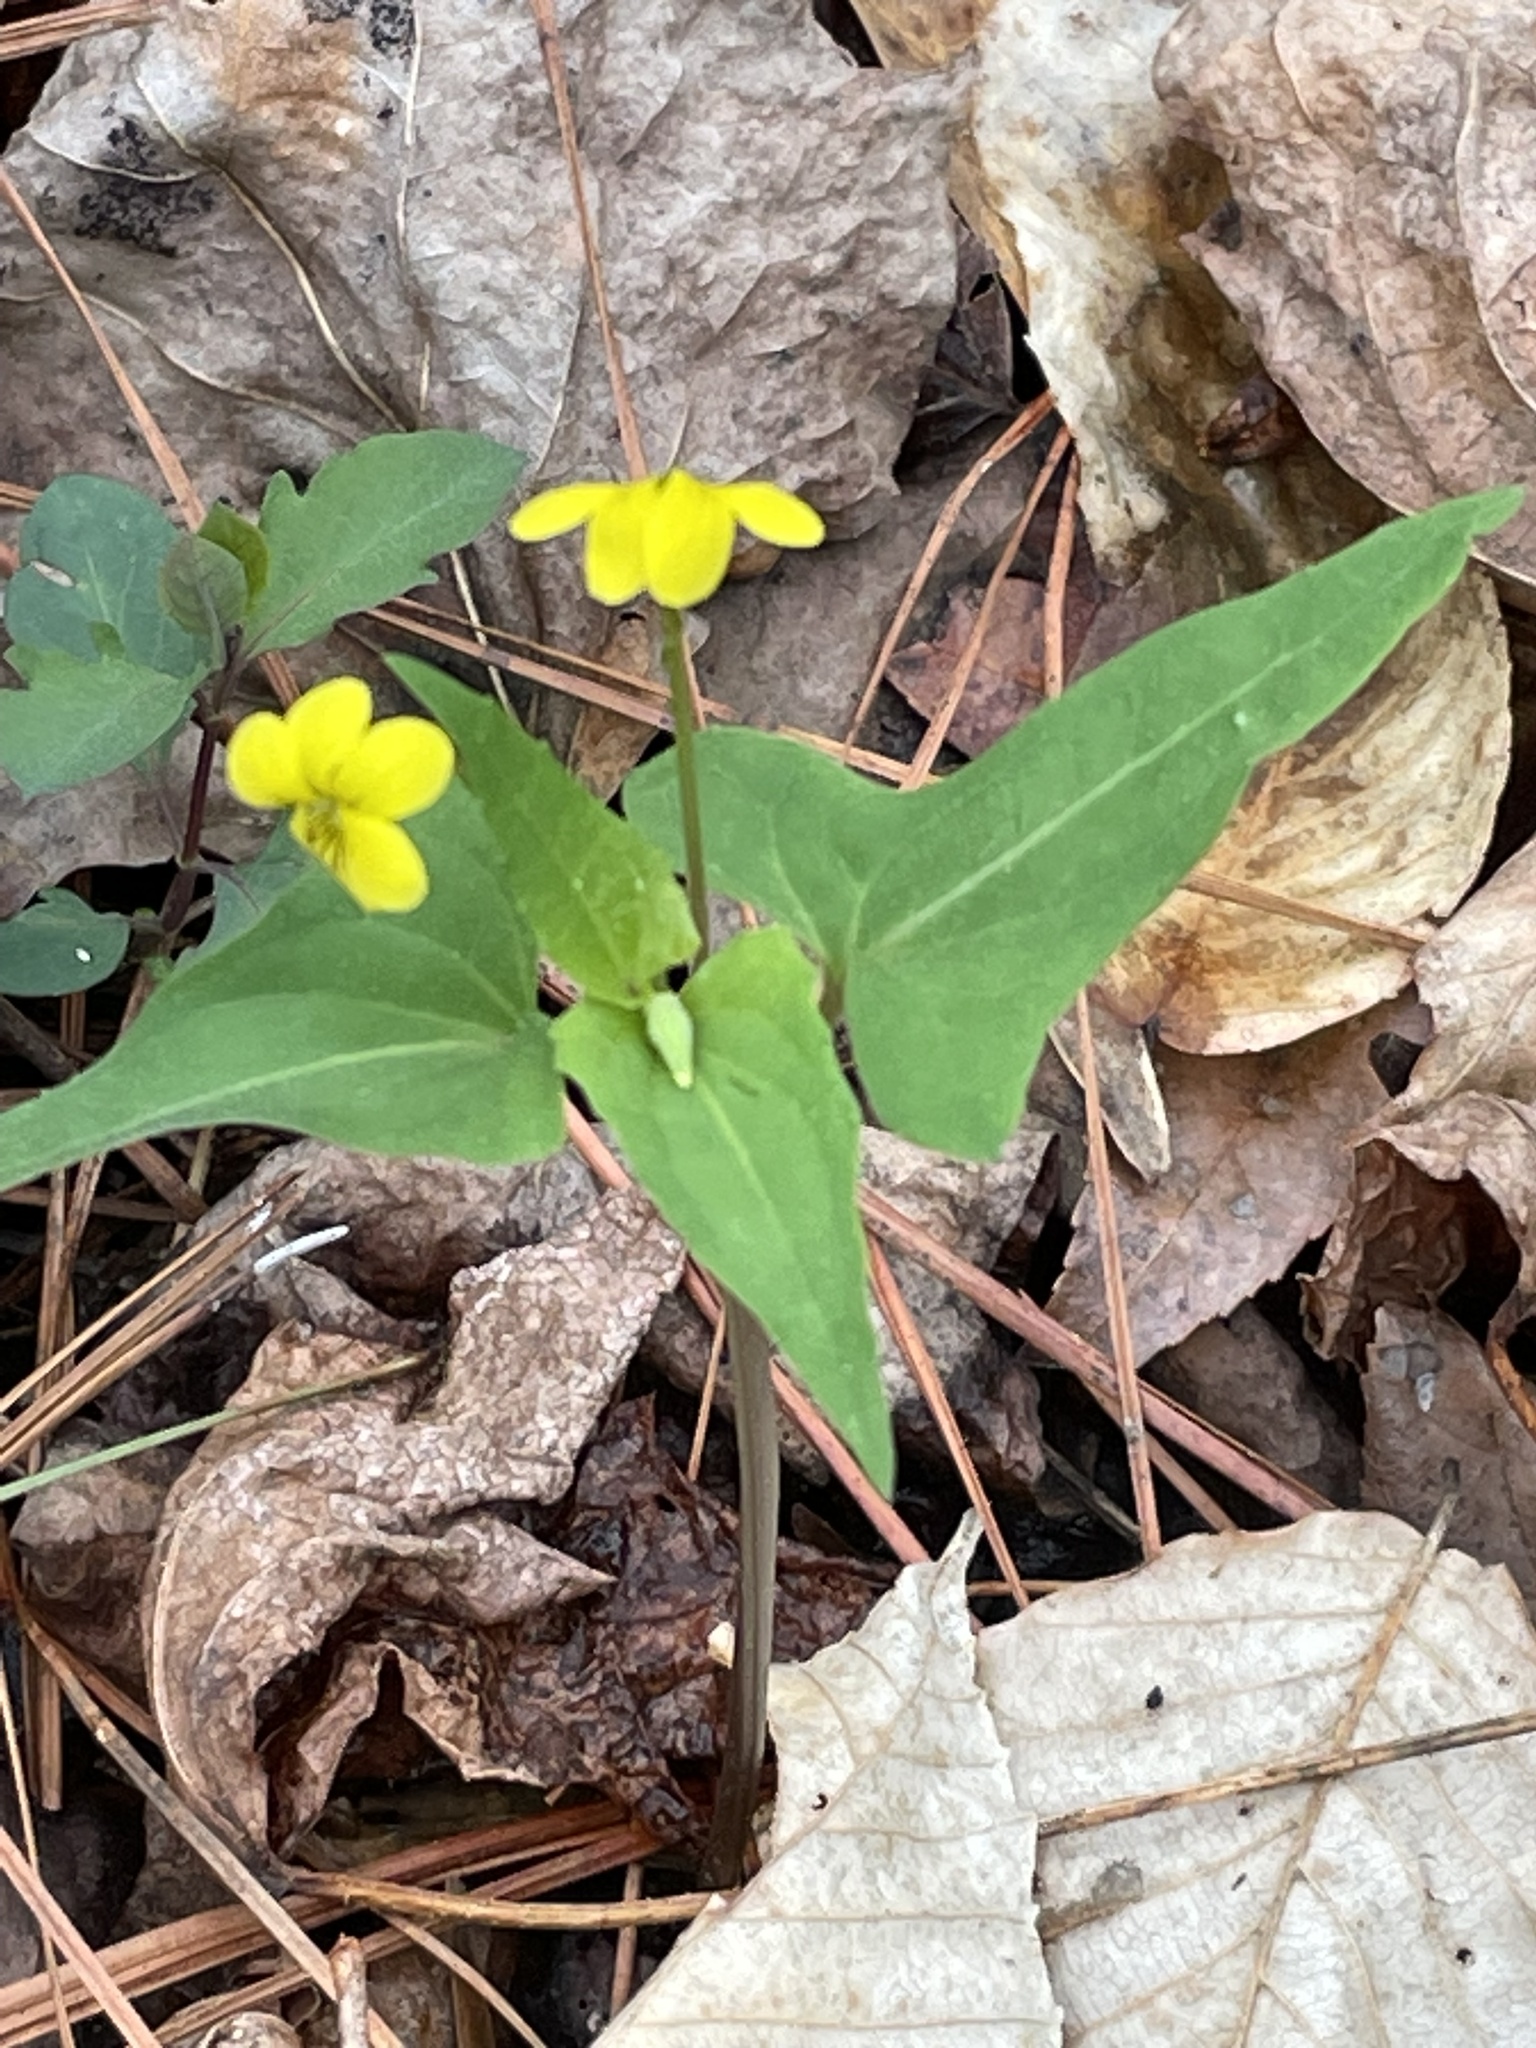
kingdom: Plantae
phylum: Tracheophyta
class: Magnoliopsida
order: Malpighiales
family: Violaceae
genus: Viola
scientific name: Viola hastata
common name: Spear-leaf violet
